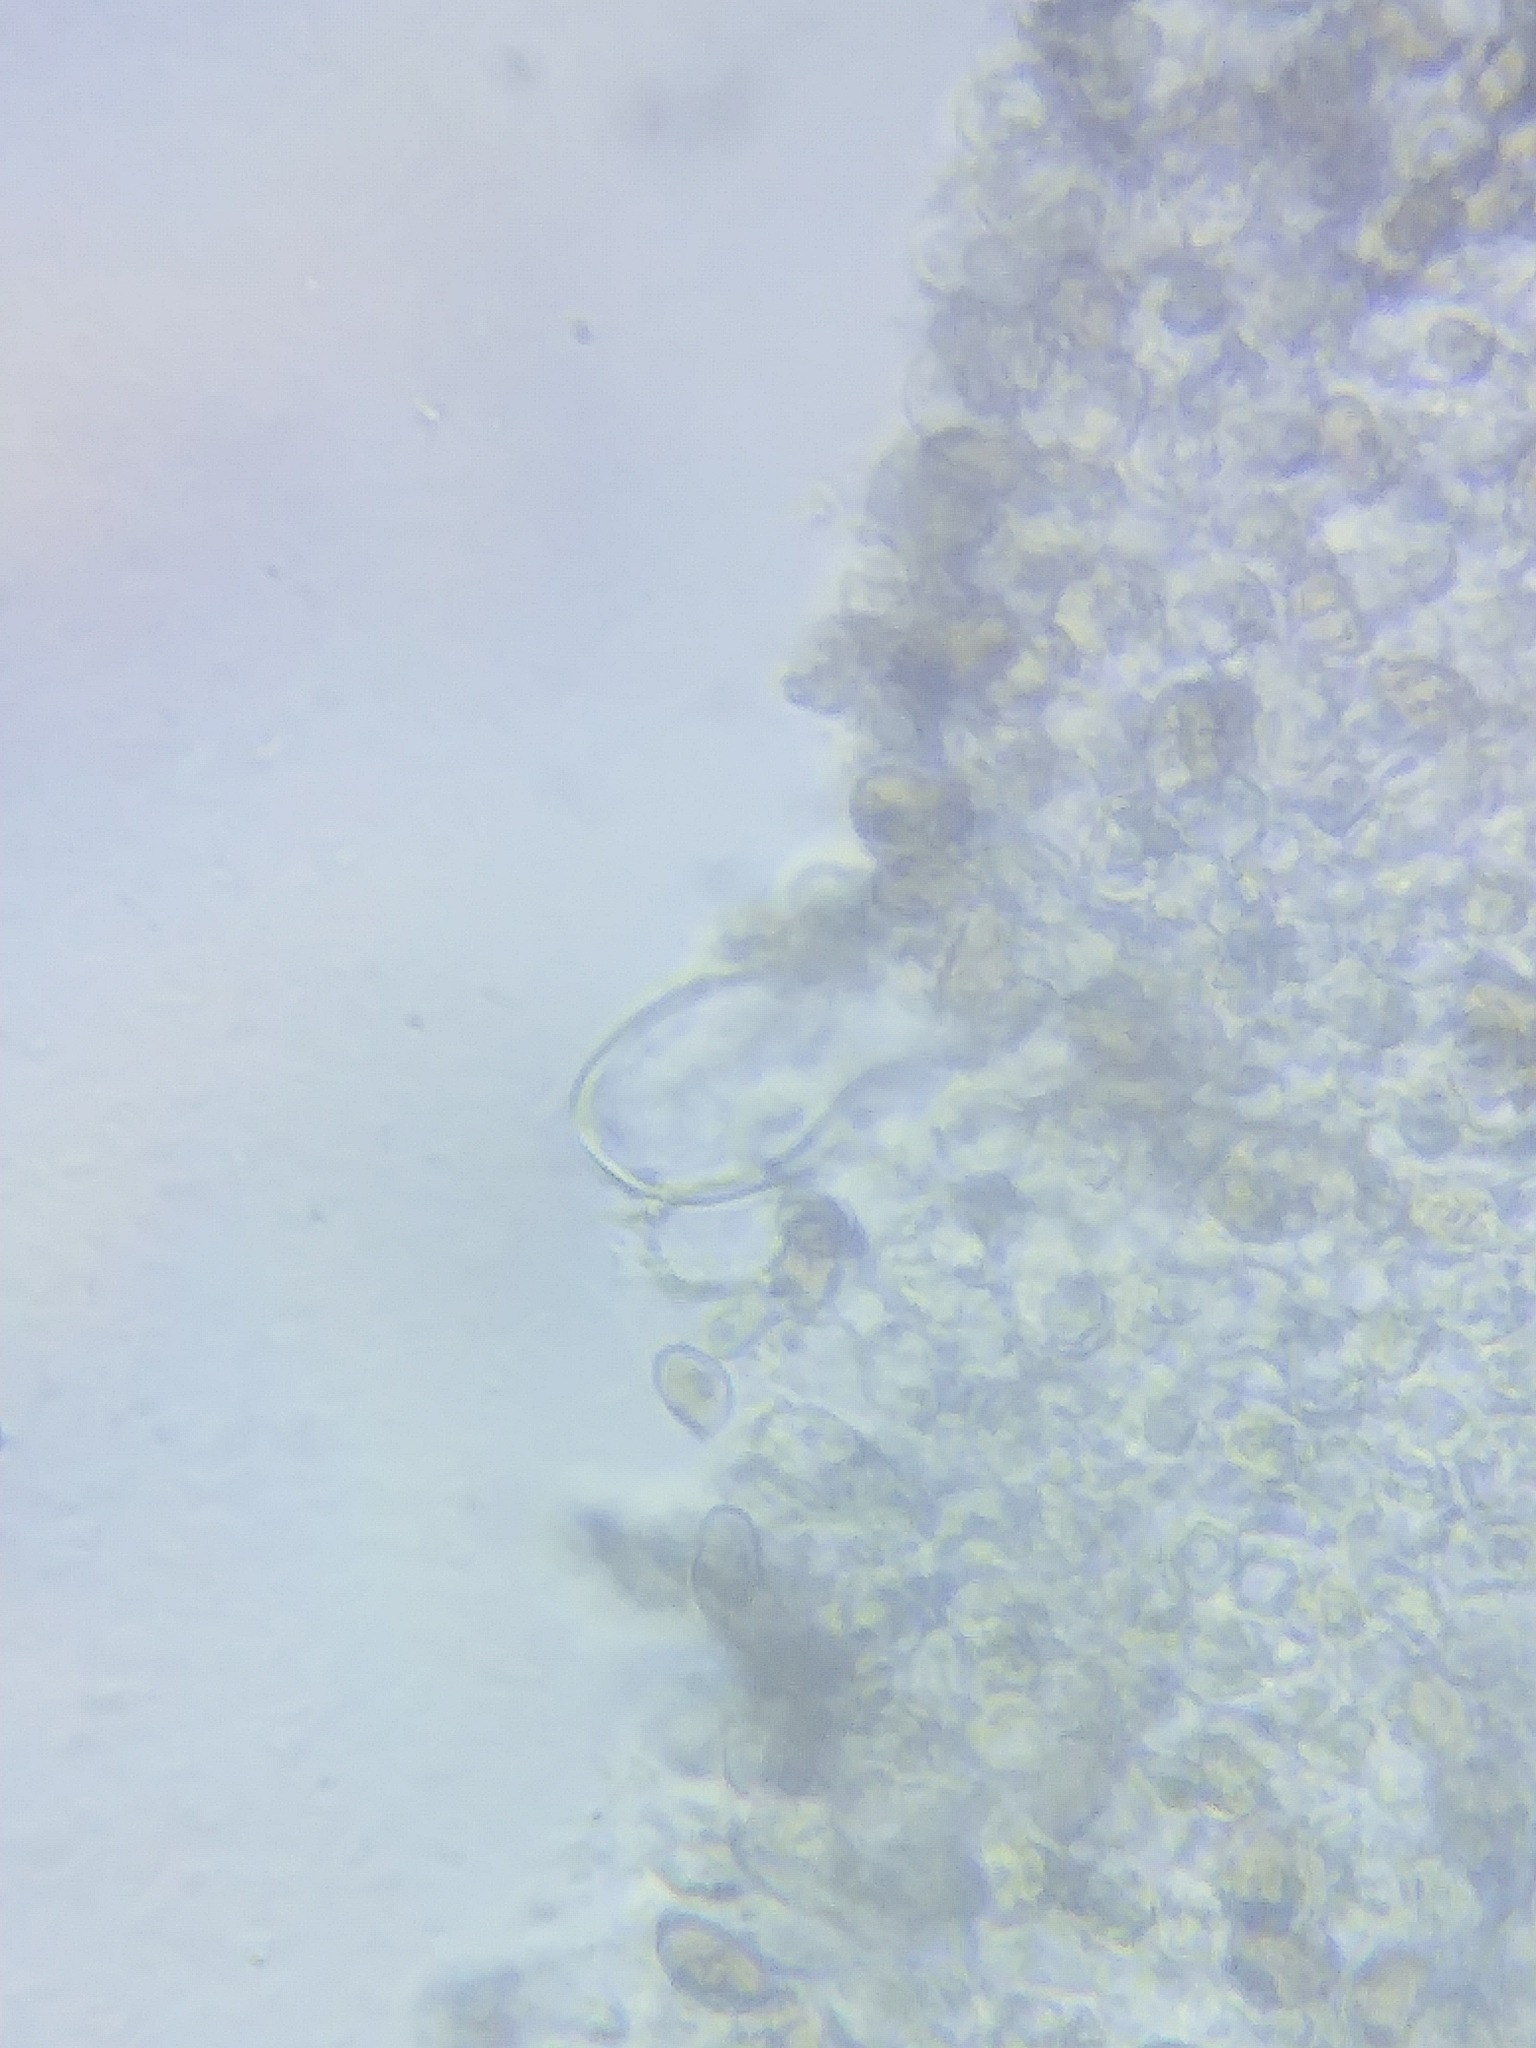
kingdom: Fungi
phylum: Basidiomycota
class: Agaricomycetes
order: Agaricales
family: Inocybaceae
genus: Inocybe
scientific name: Inocybe pallidicremea
